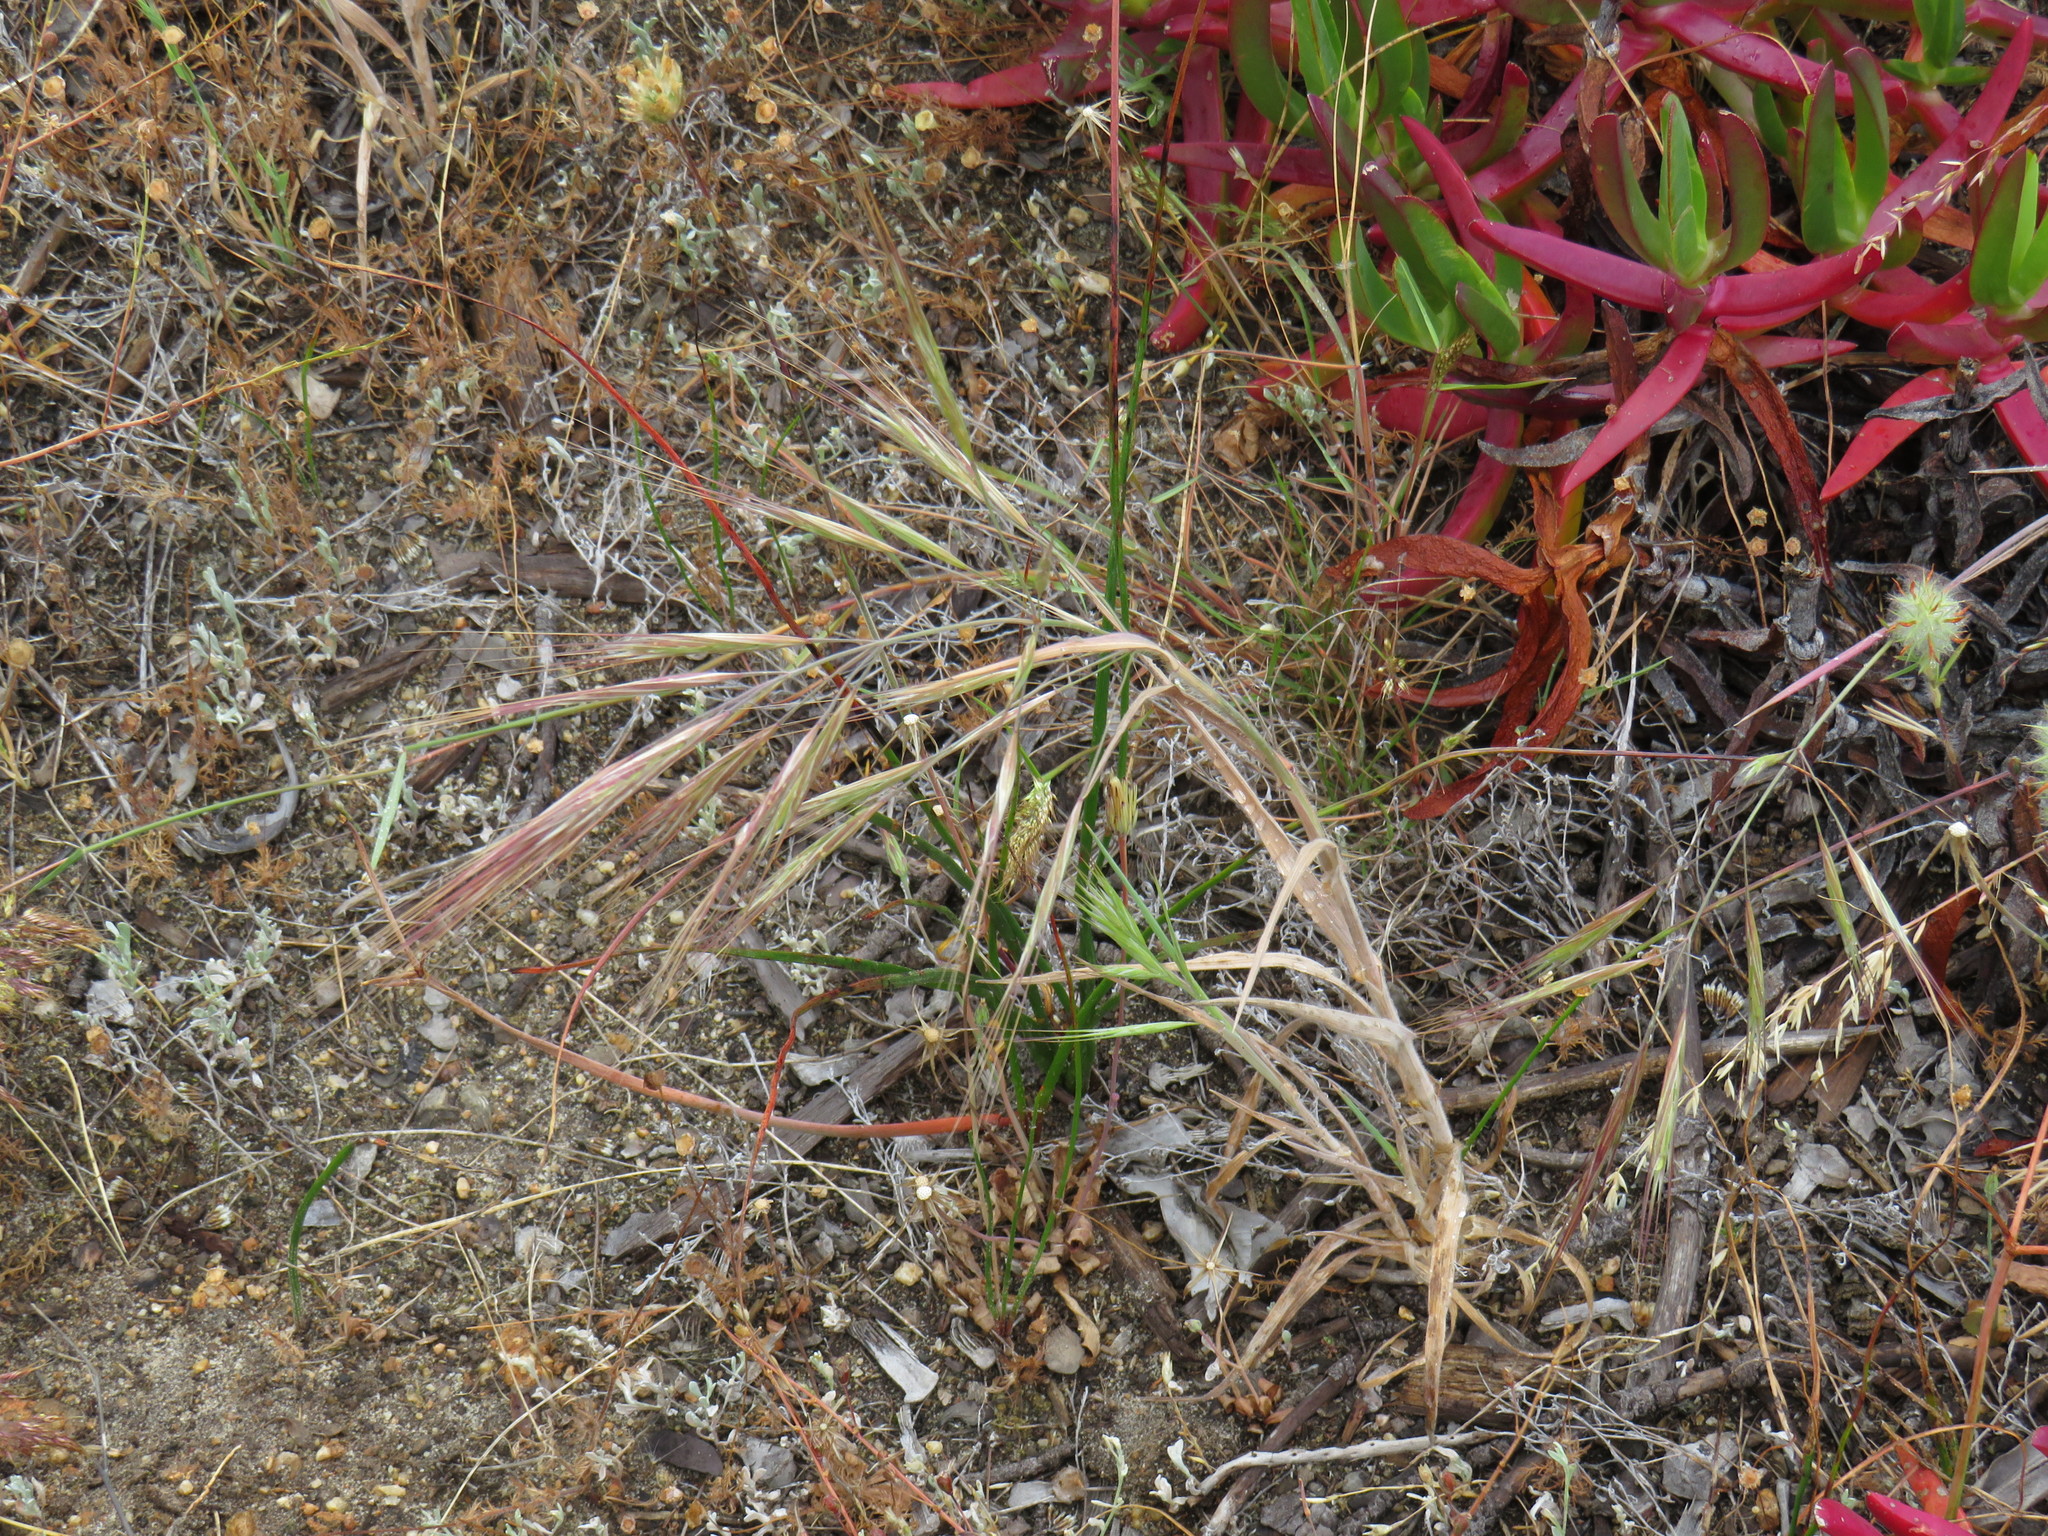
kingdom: Plantae
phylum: Tracheophyta
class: Liliopsida
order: Poales
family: Poaceae
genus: Bromus
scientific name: Bromus diandrus
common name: Ripgut brome
